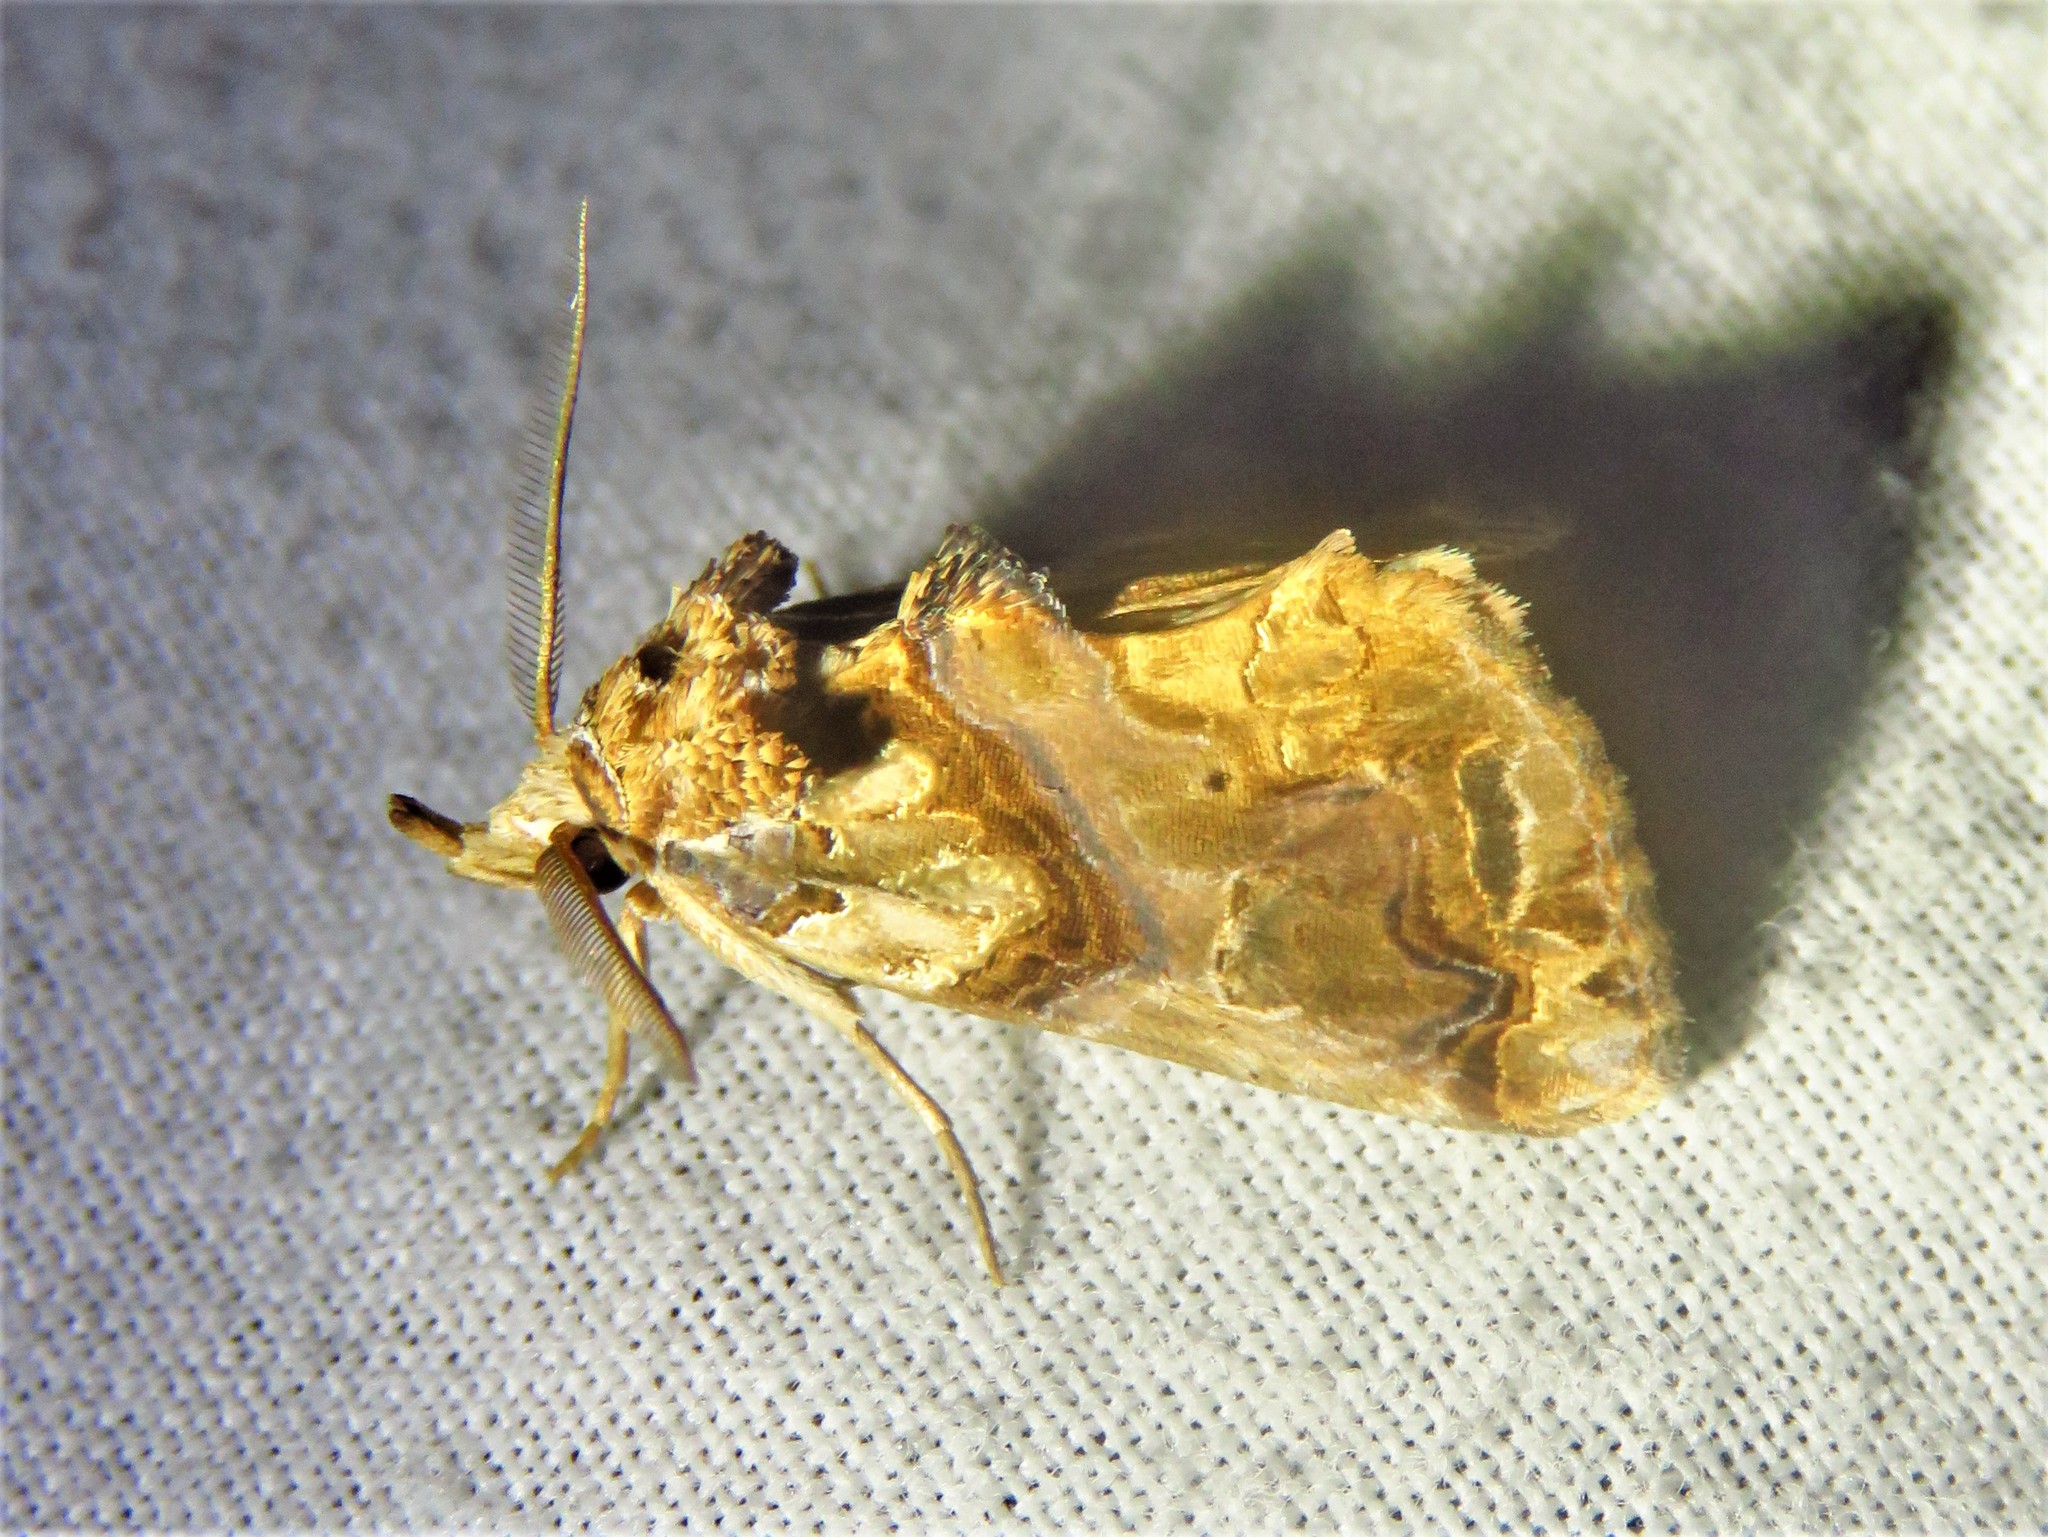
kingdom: Animalia
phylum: Arthropoda
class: Insecta
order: Lepidoptera
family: Erebidae
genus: Plusiodonta
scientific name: Plusiodonta compressipalpis
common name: Moonseed moth
